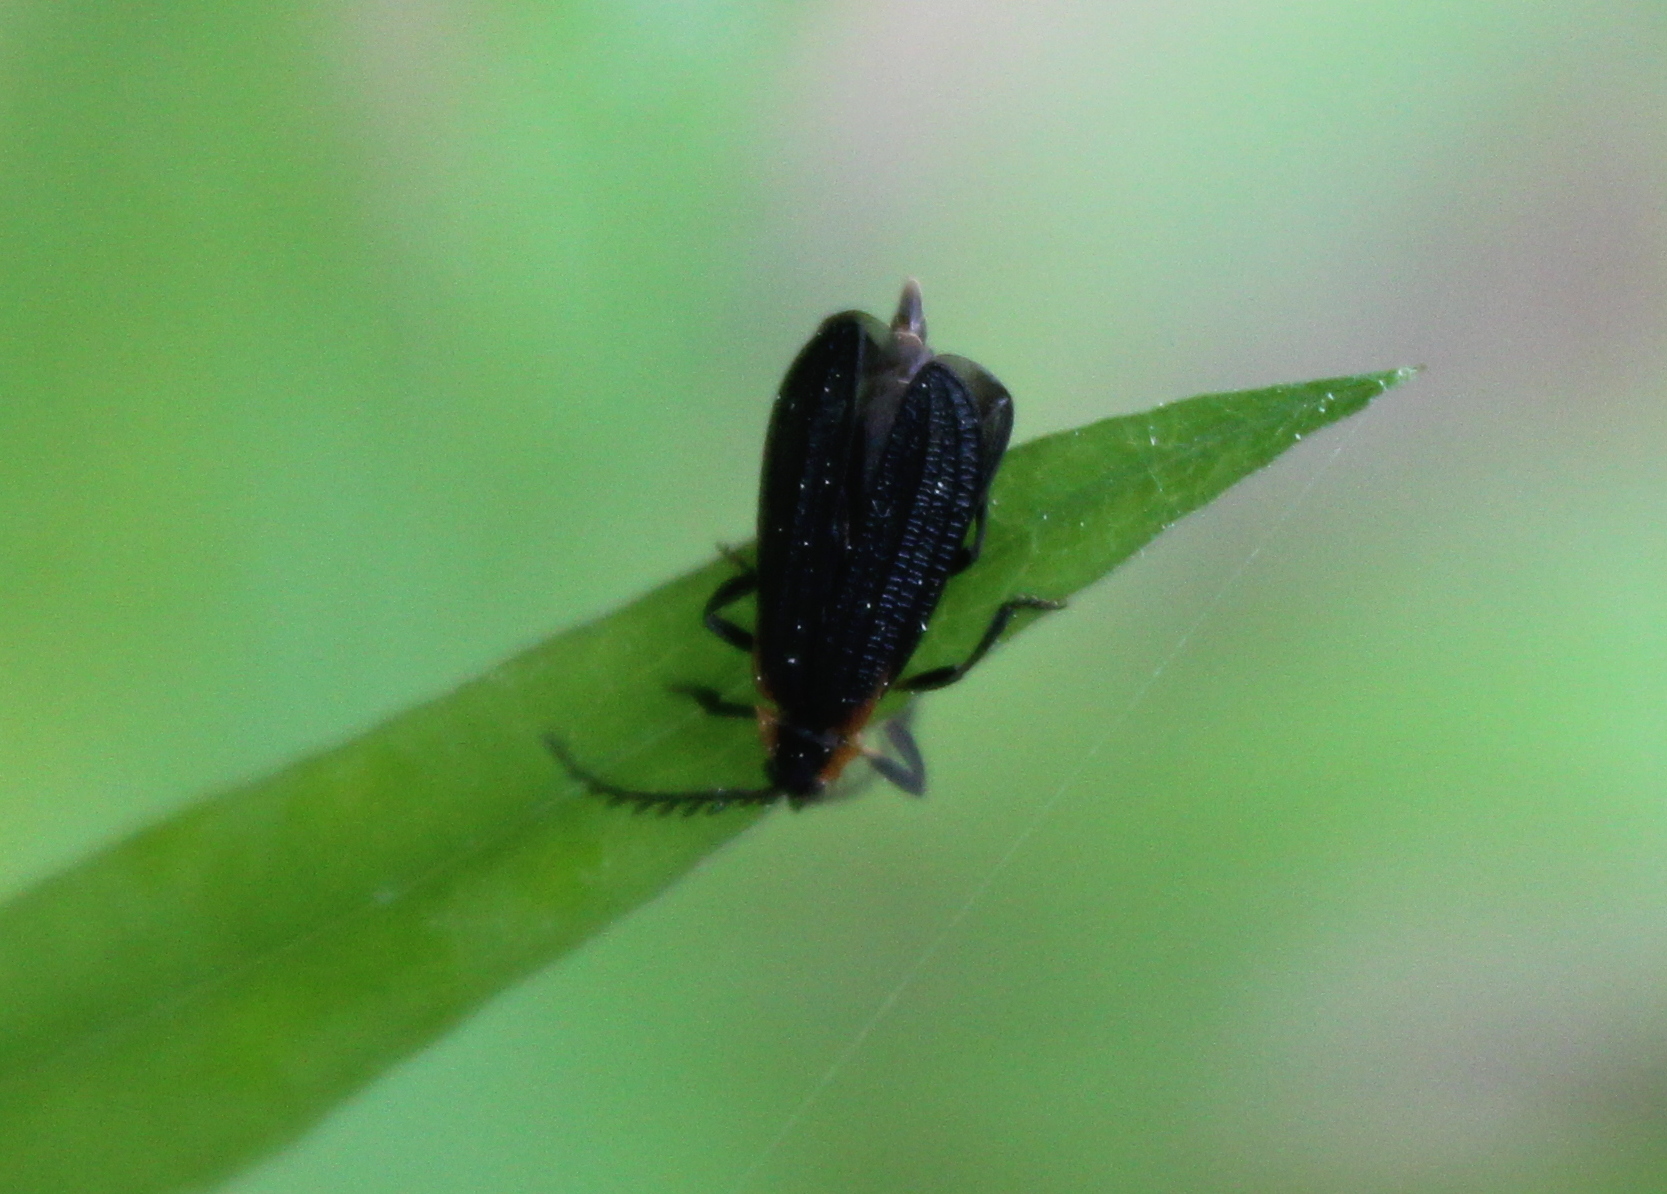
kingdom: Animalia
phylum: Arthropoda
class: Insecta
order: Coleoptera
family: Lycidae
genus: Leptoceletes
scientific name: Leptoceletes basalis
